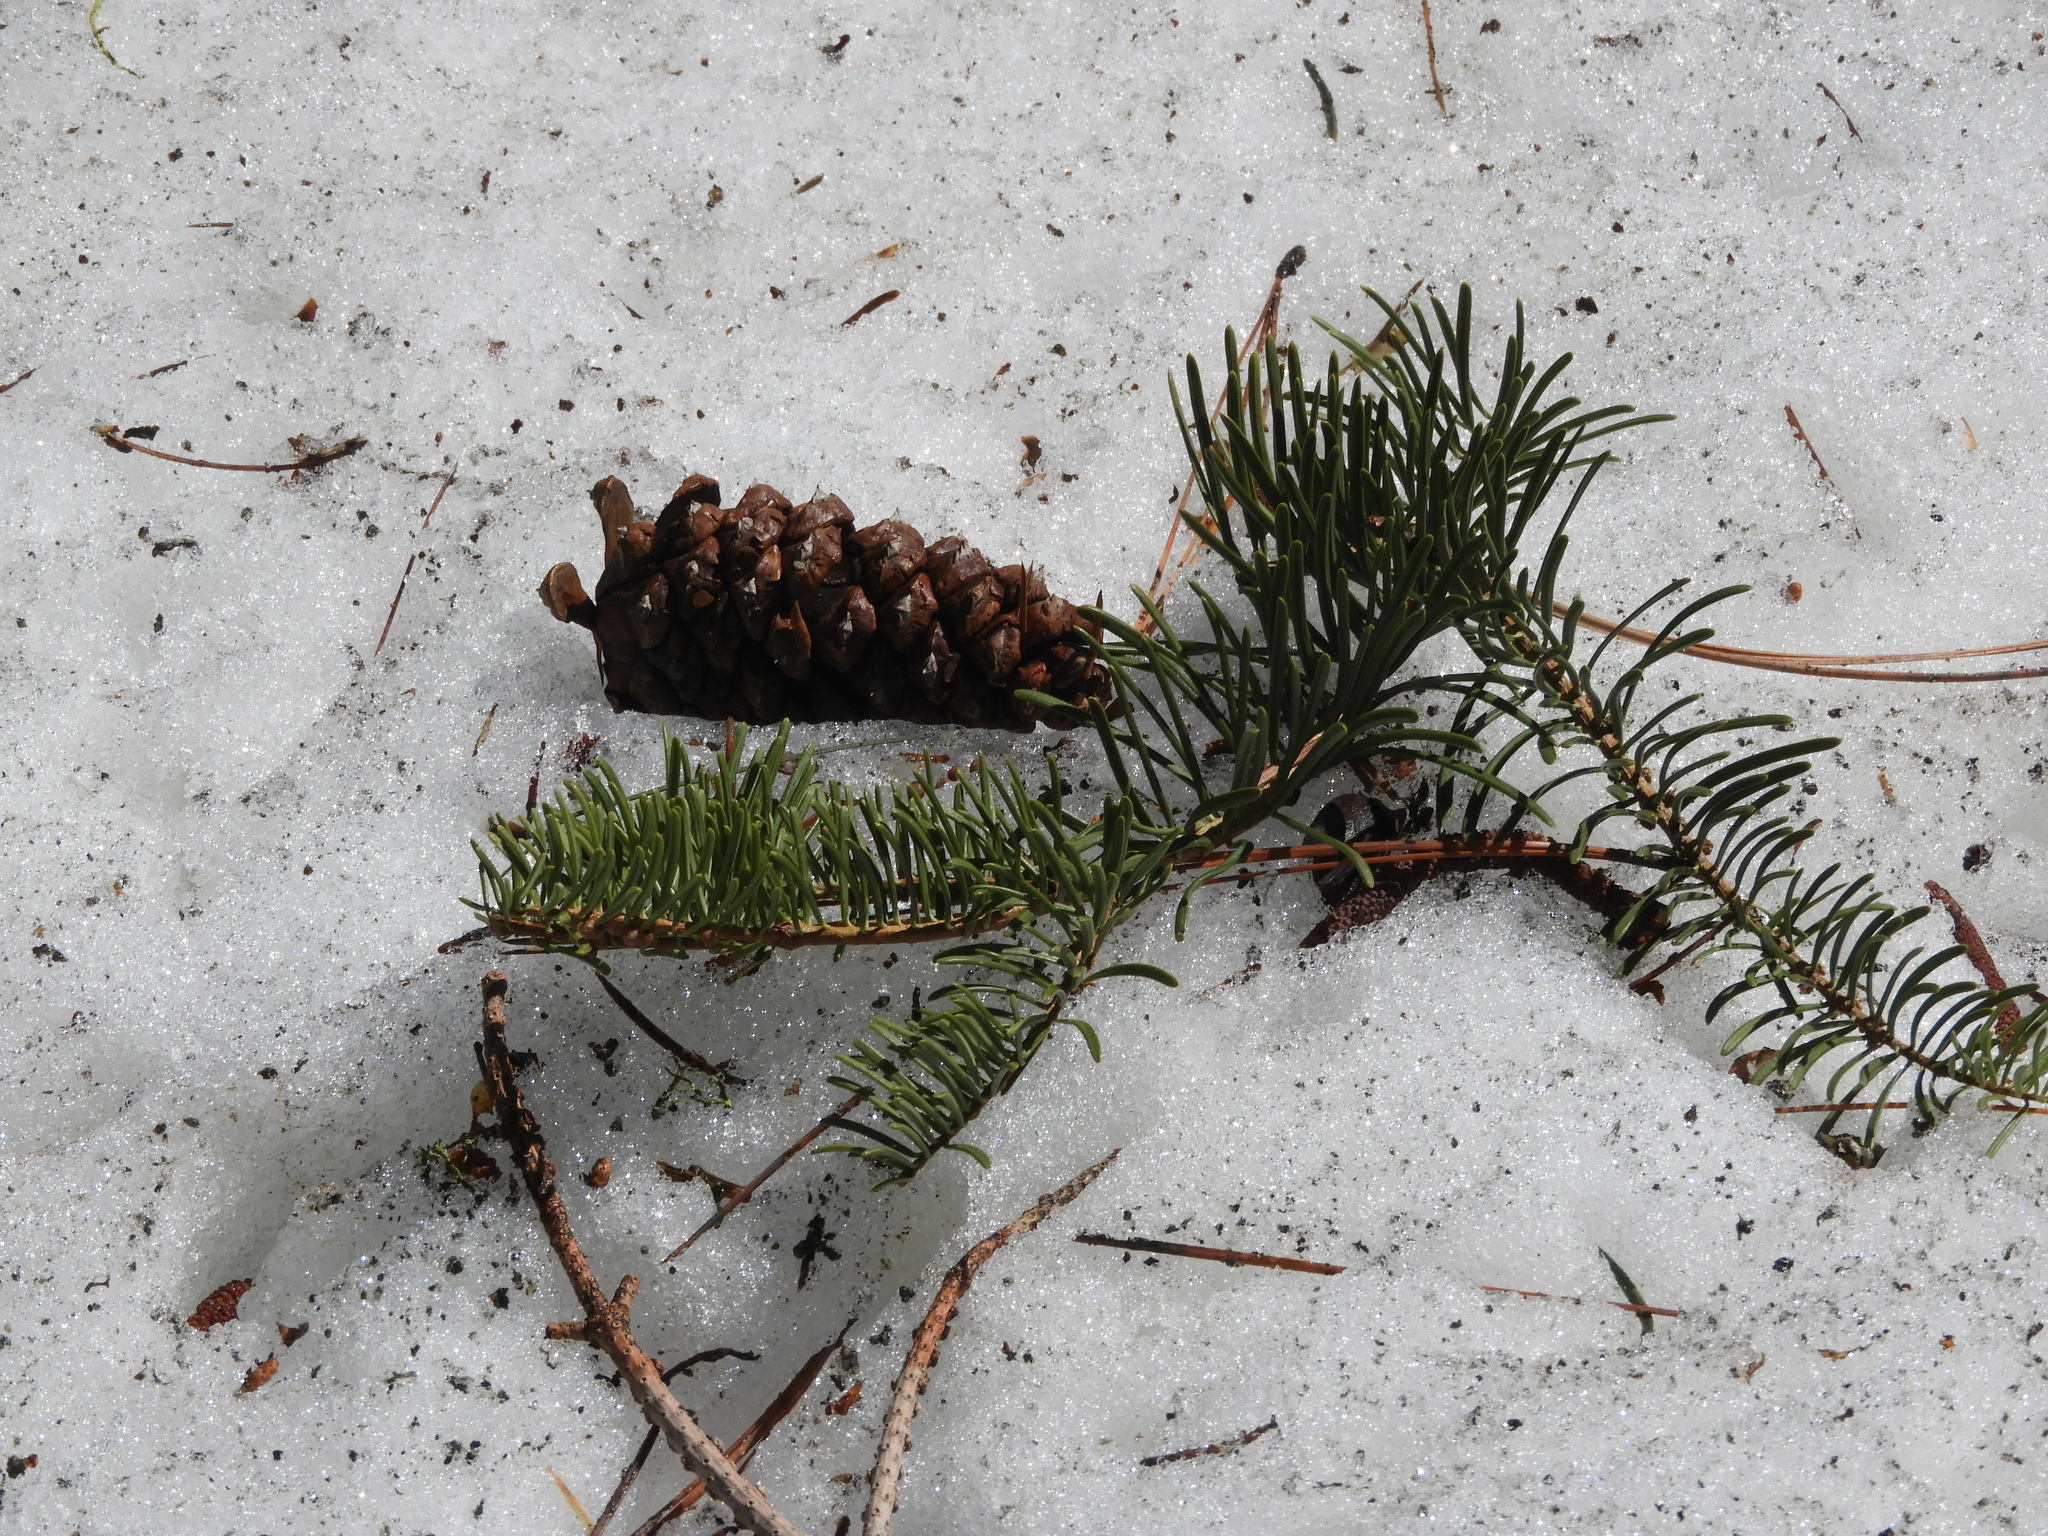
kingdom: Plantae
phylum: Tracheophyta
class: Pinopsida
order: Pinales
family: Pinaceae
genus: Abies
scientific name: Abies concolor
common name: Colorado fir
